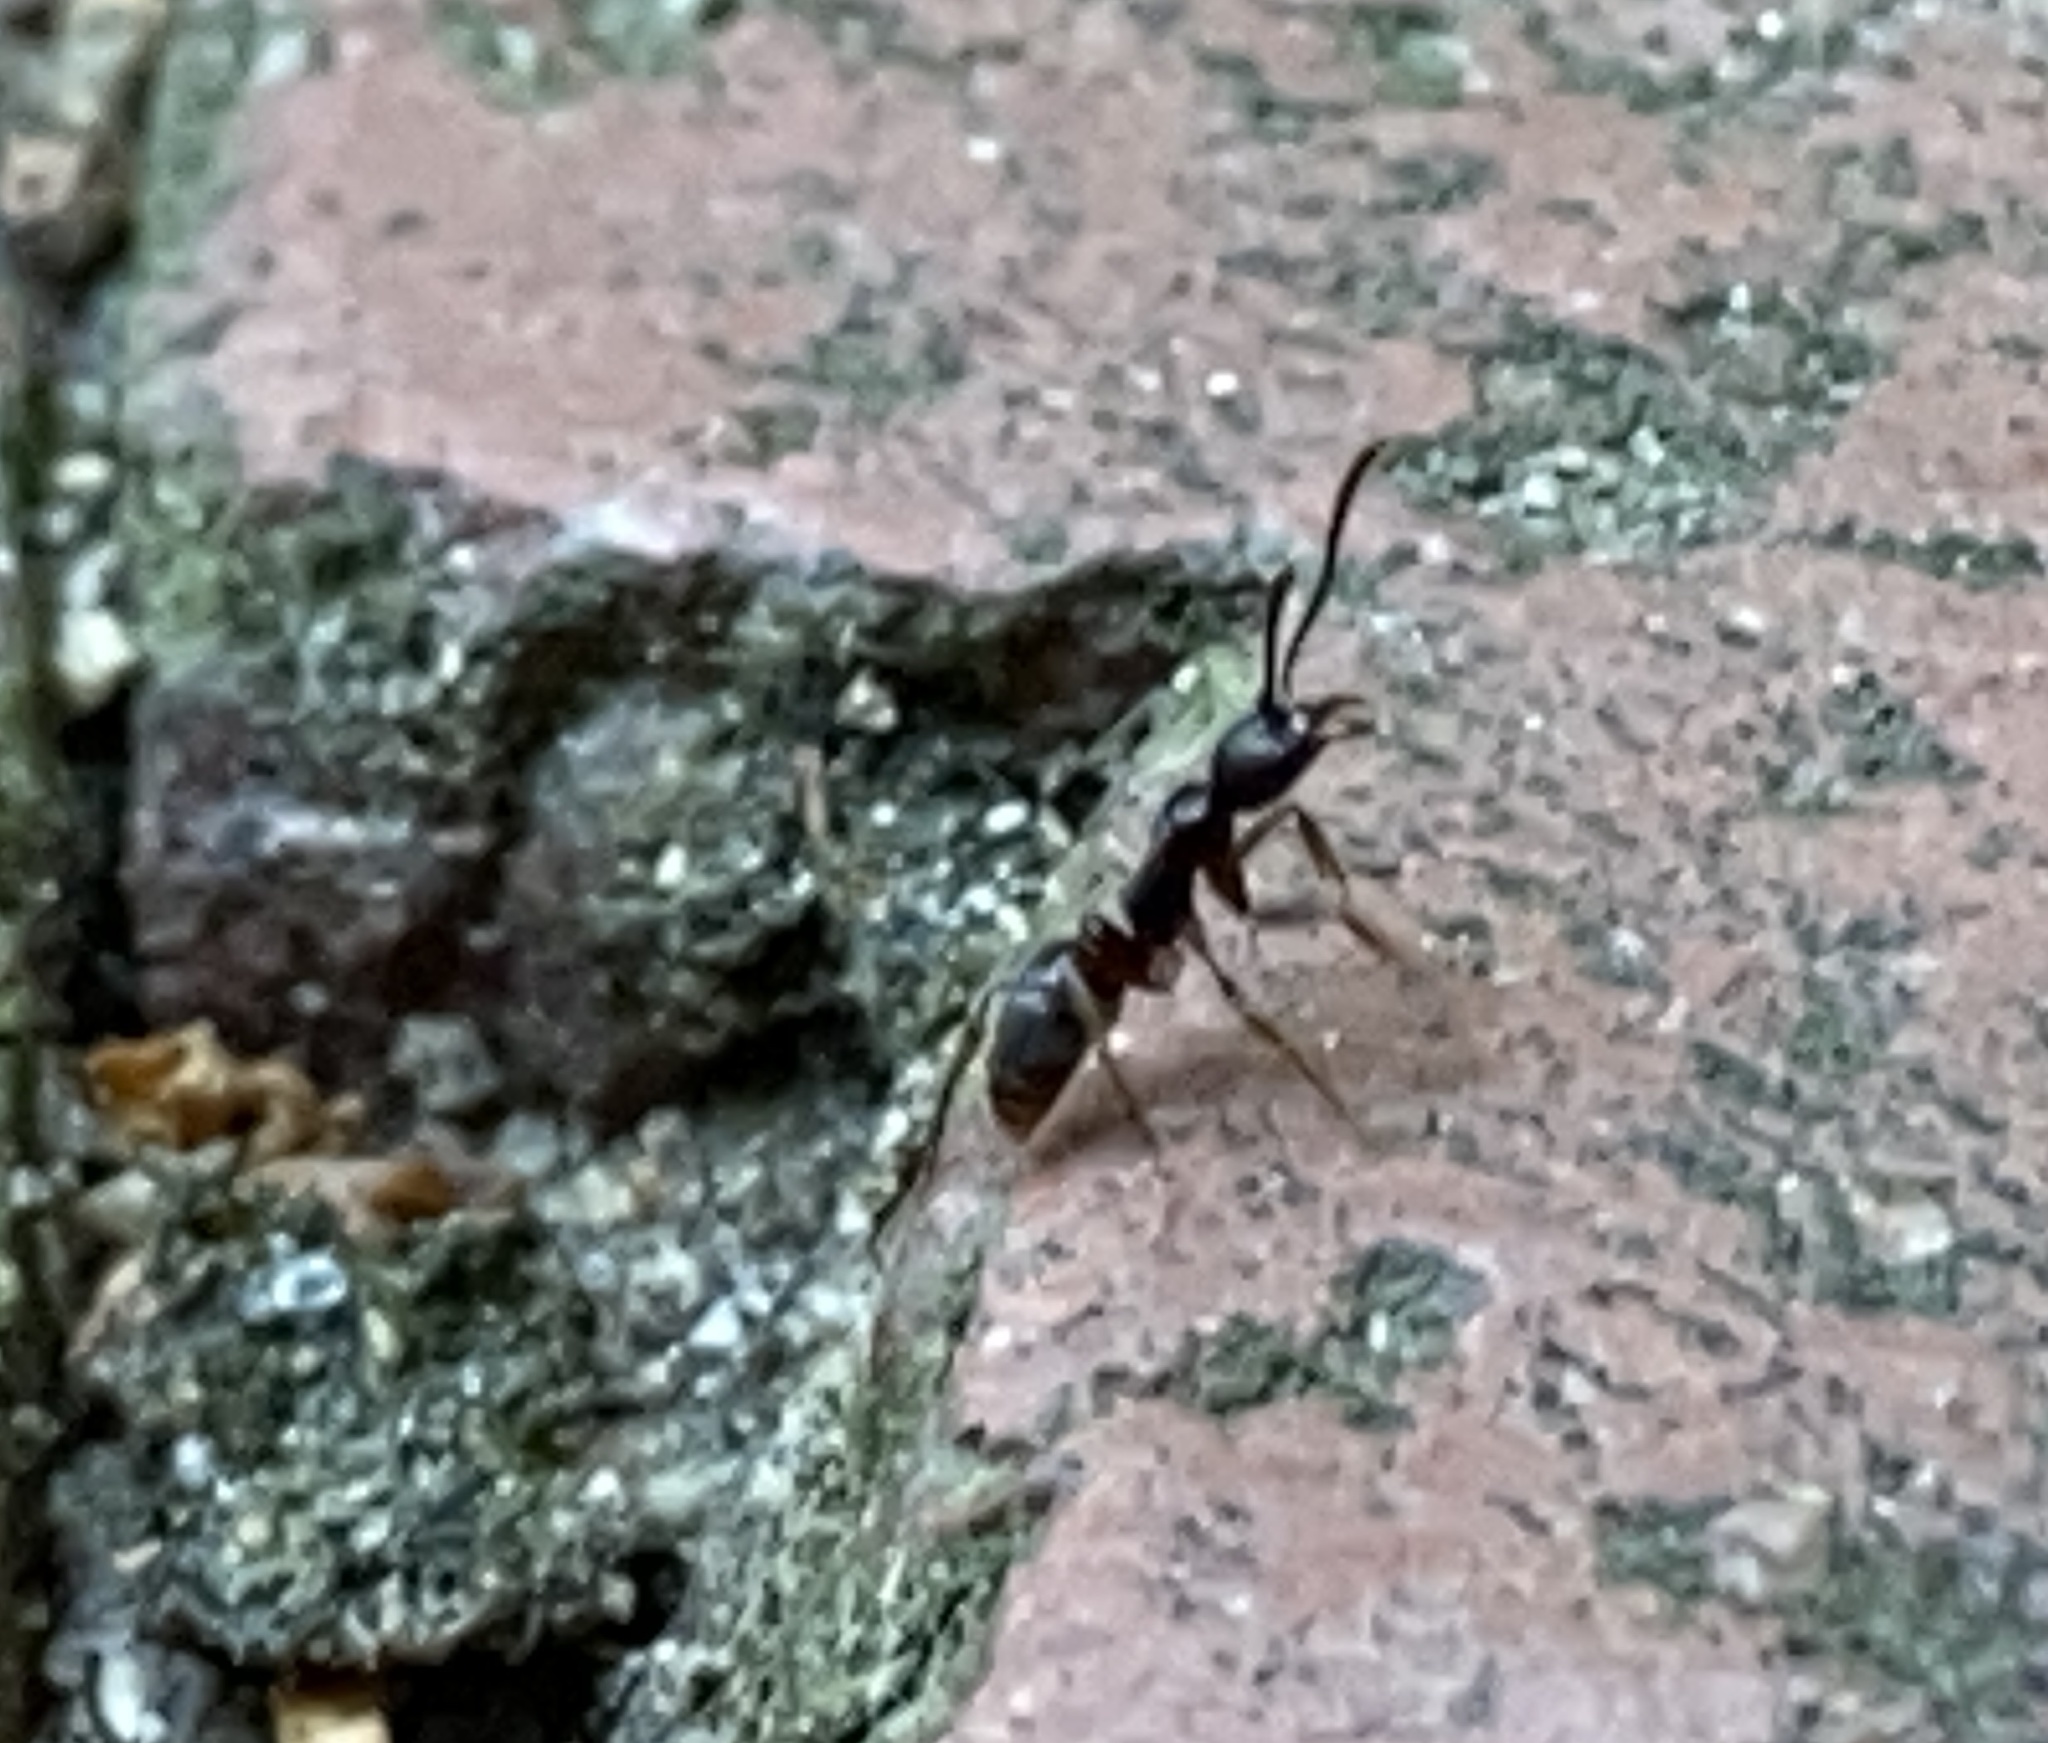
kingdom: Animalia
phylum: Arthropoda
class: Insecta
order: Hymenoptera
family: Formicidae
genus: Pachycondyla
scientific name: Pachycondyla chinensis
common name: Asian needle ant
